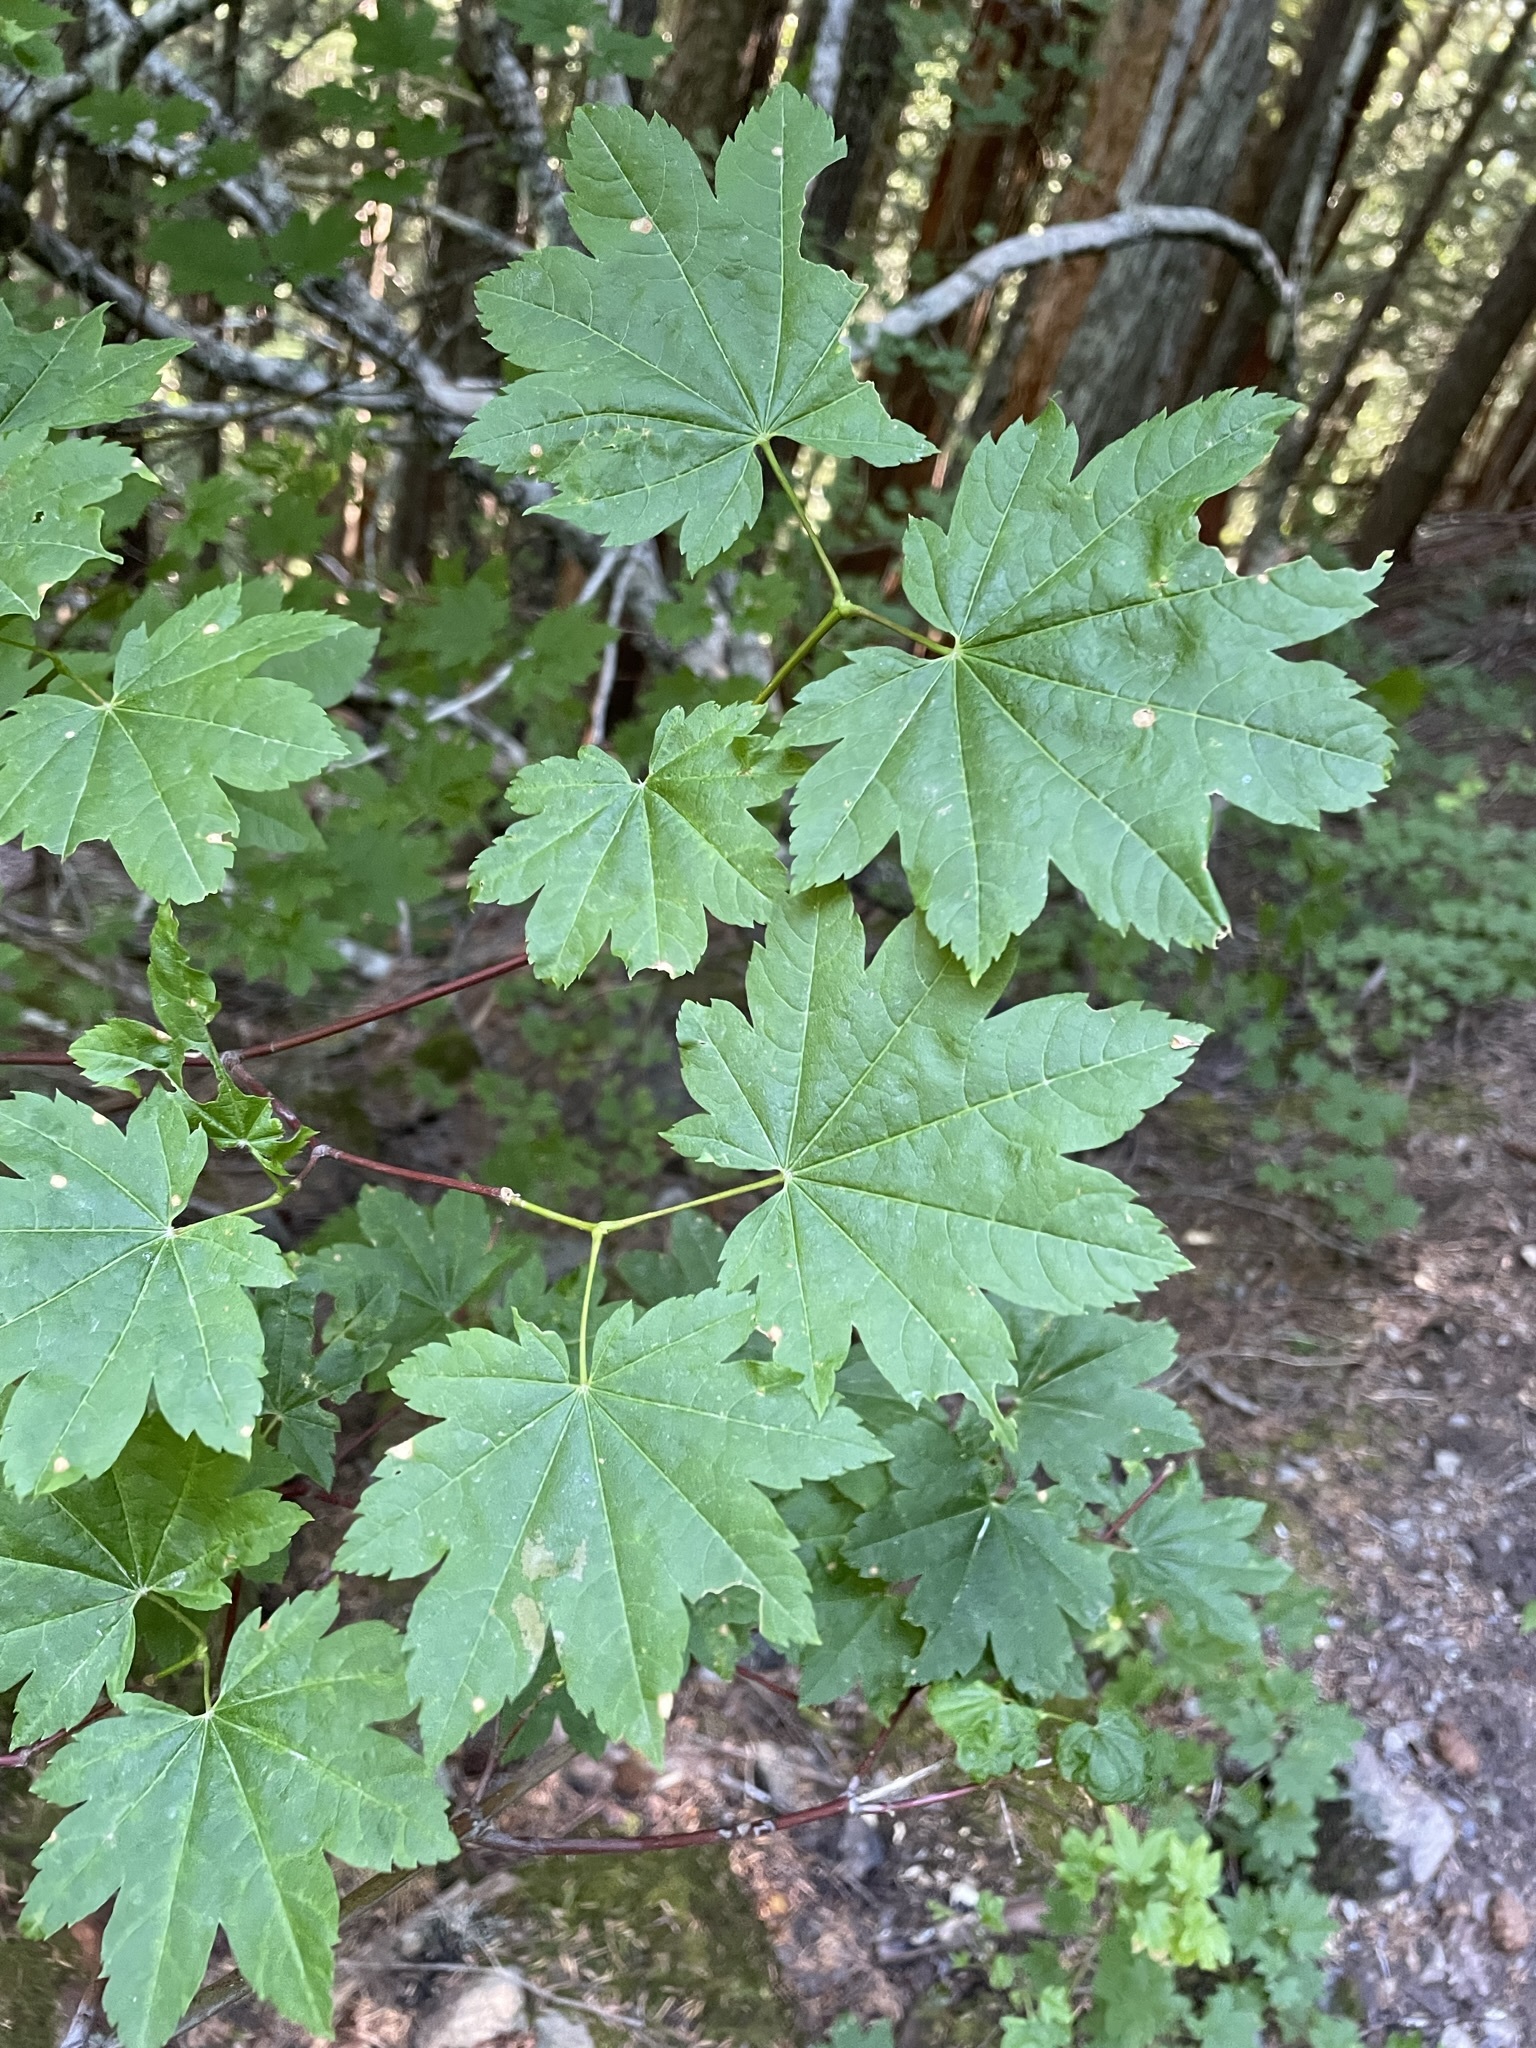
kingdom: Plantae
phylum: Tracheophyta
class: Magnoliopsida
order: Sapindales
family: Sapindaceae
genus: Acer
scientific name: Acer circinatum
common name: Vine maple
